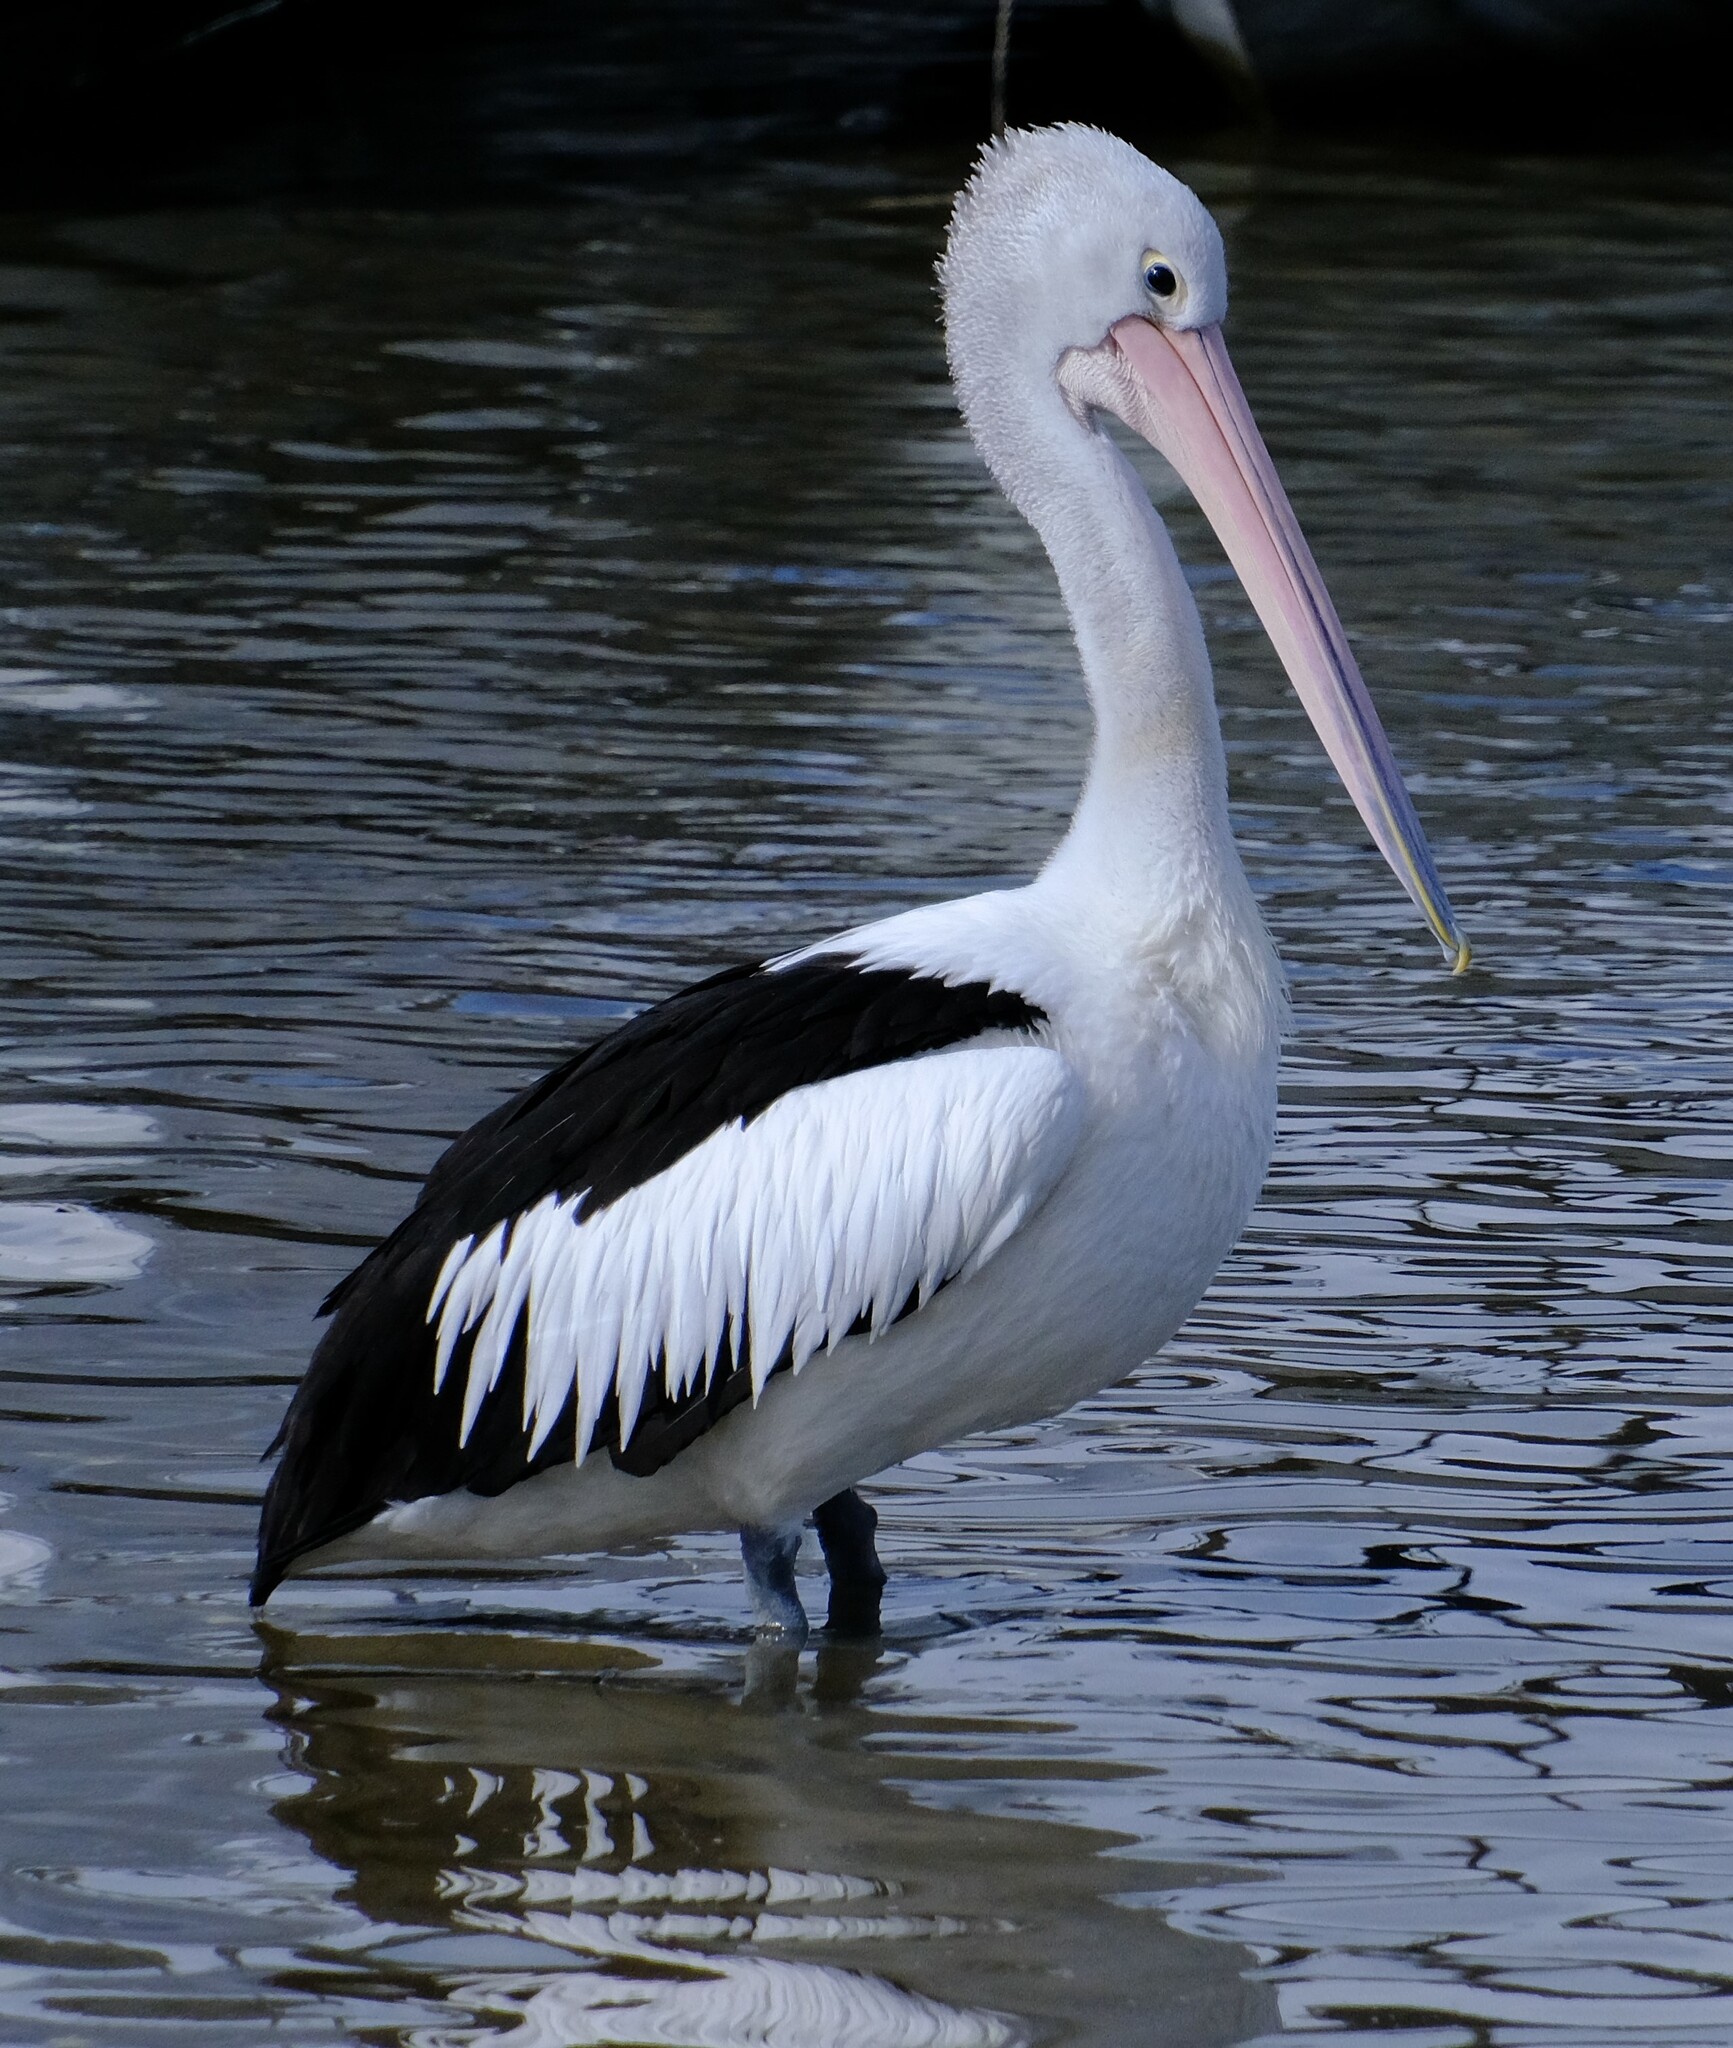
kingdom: Animalia
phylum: Chordata
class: Aves
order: Pelecaniformes
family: Pelecanidae
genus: Pelecanus
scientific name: Pelecanus conspicillatus
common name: Australian pelican
